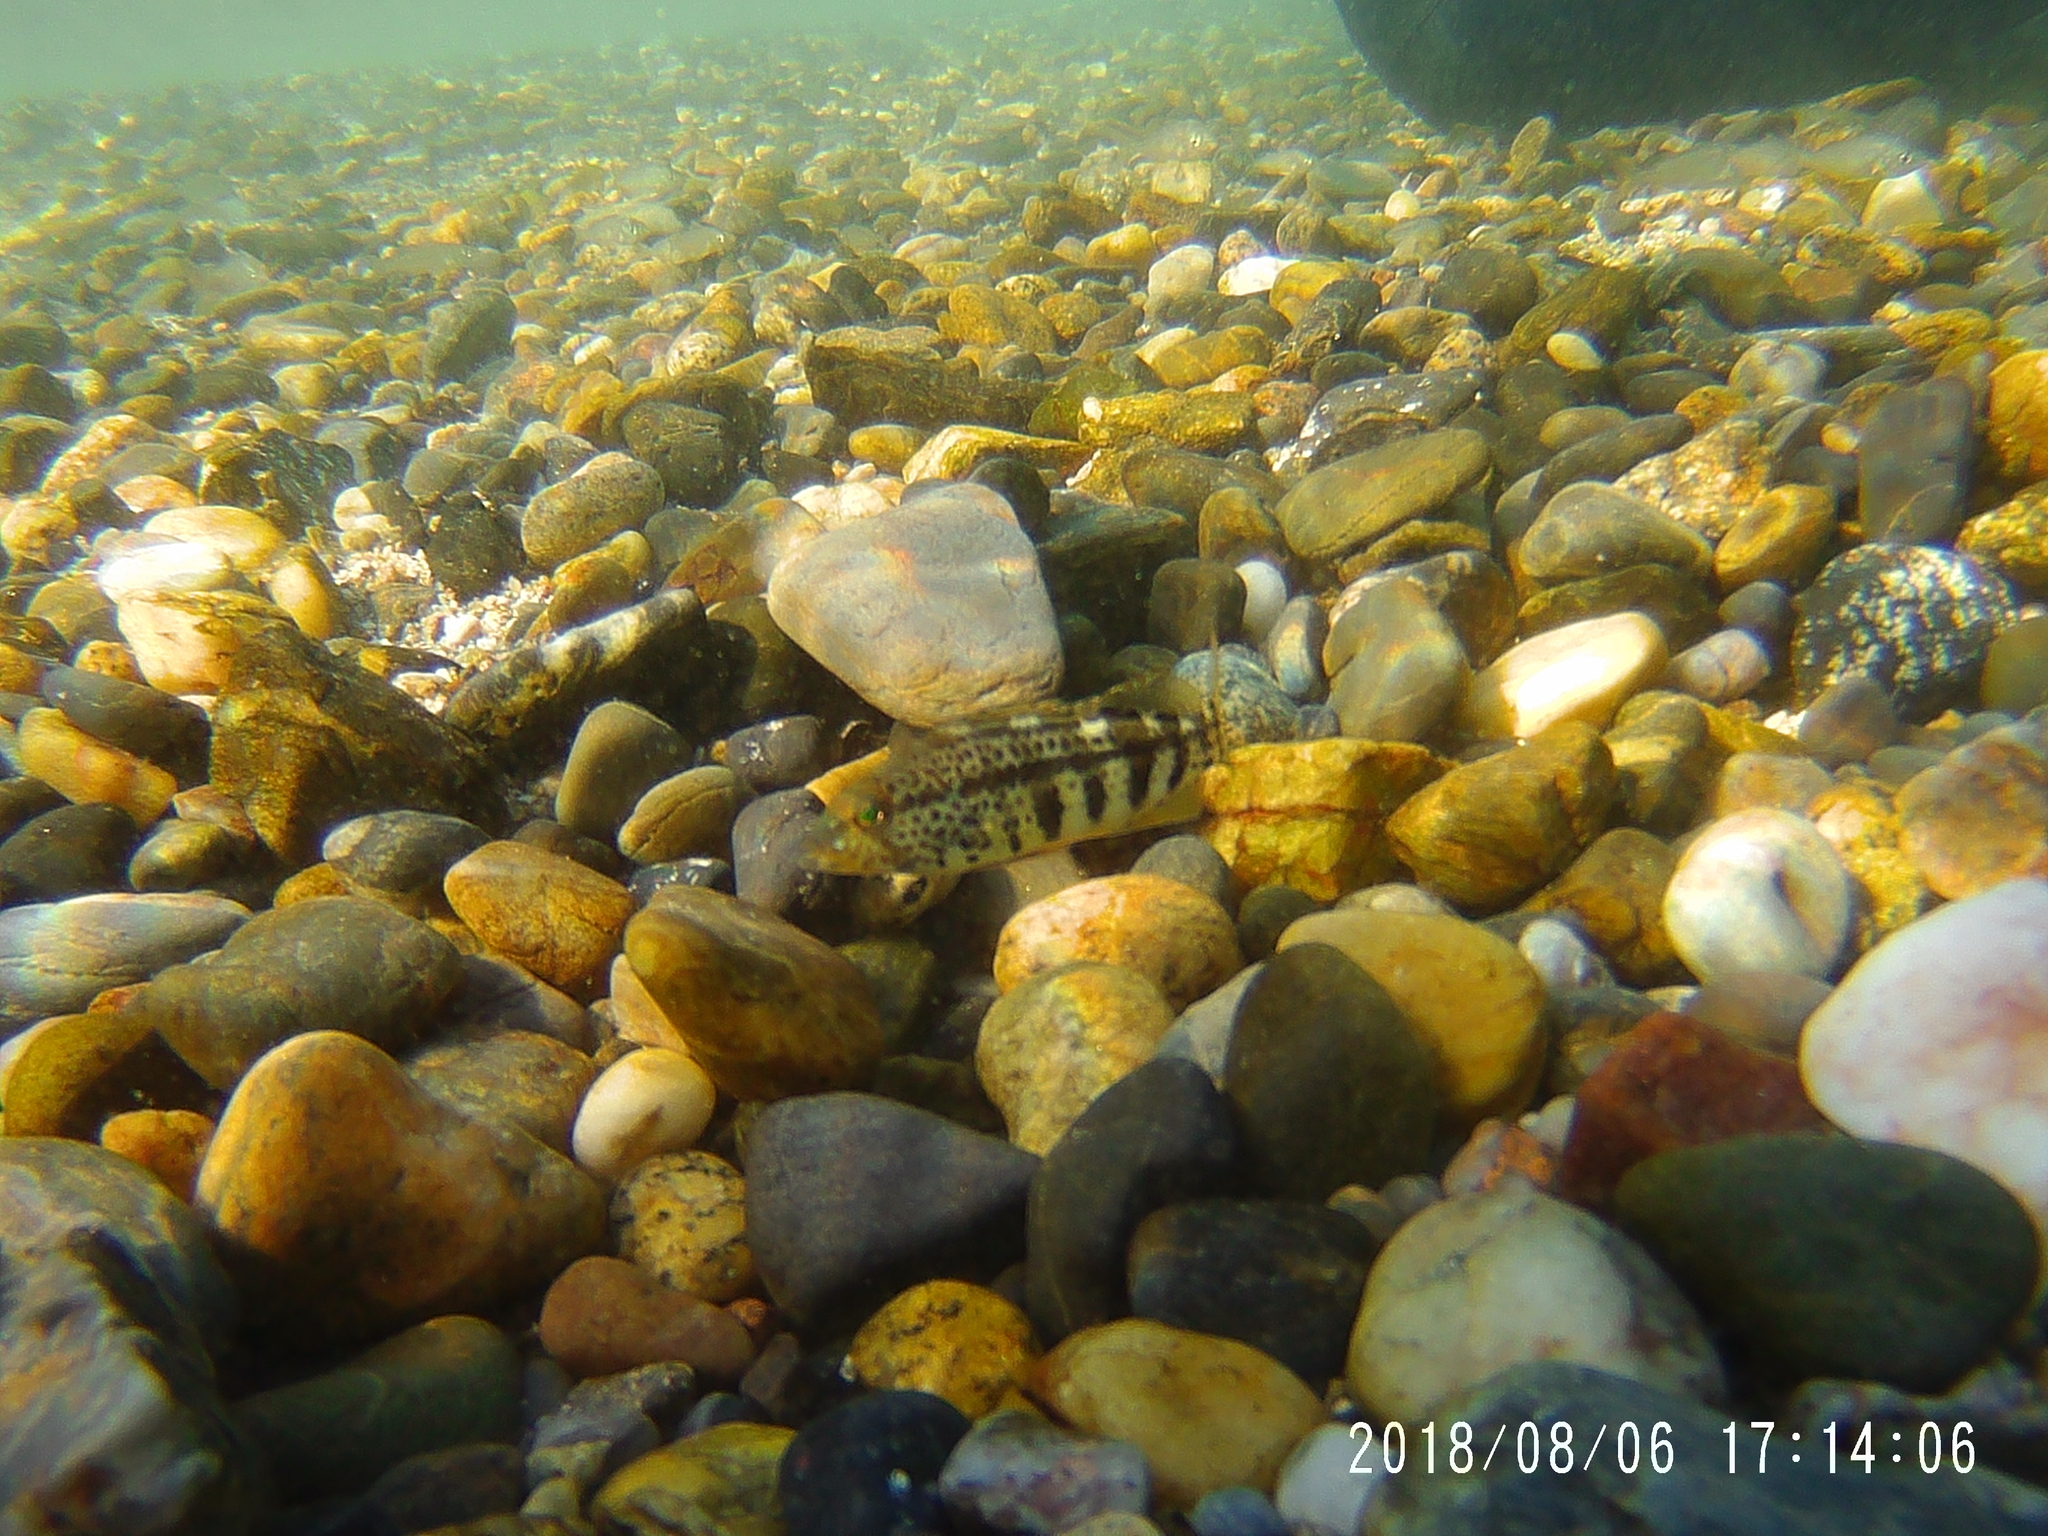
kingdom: Animalia
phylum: Chordata
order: Perciformes
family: Serranidae
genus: Paralabrax
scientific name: Paralabrax maculatofasciatus
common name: Spotted sand bass
